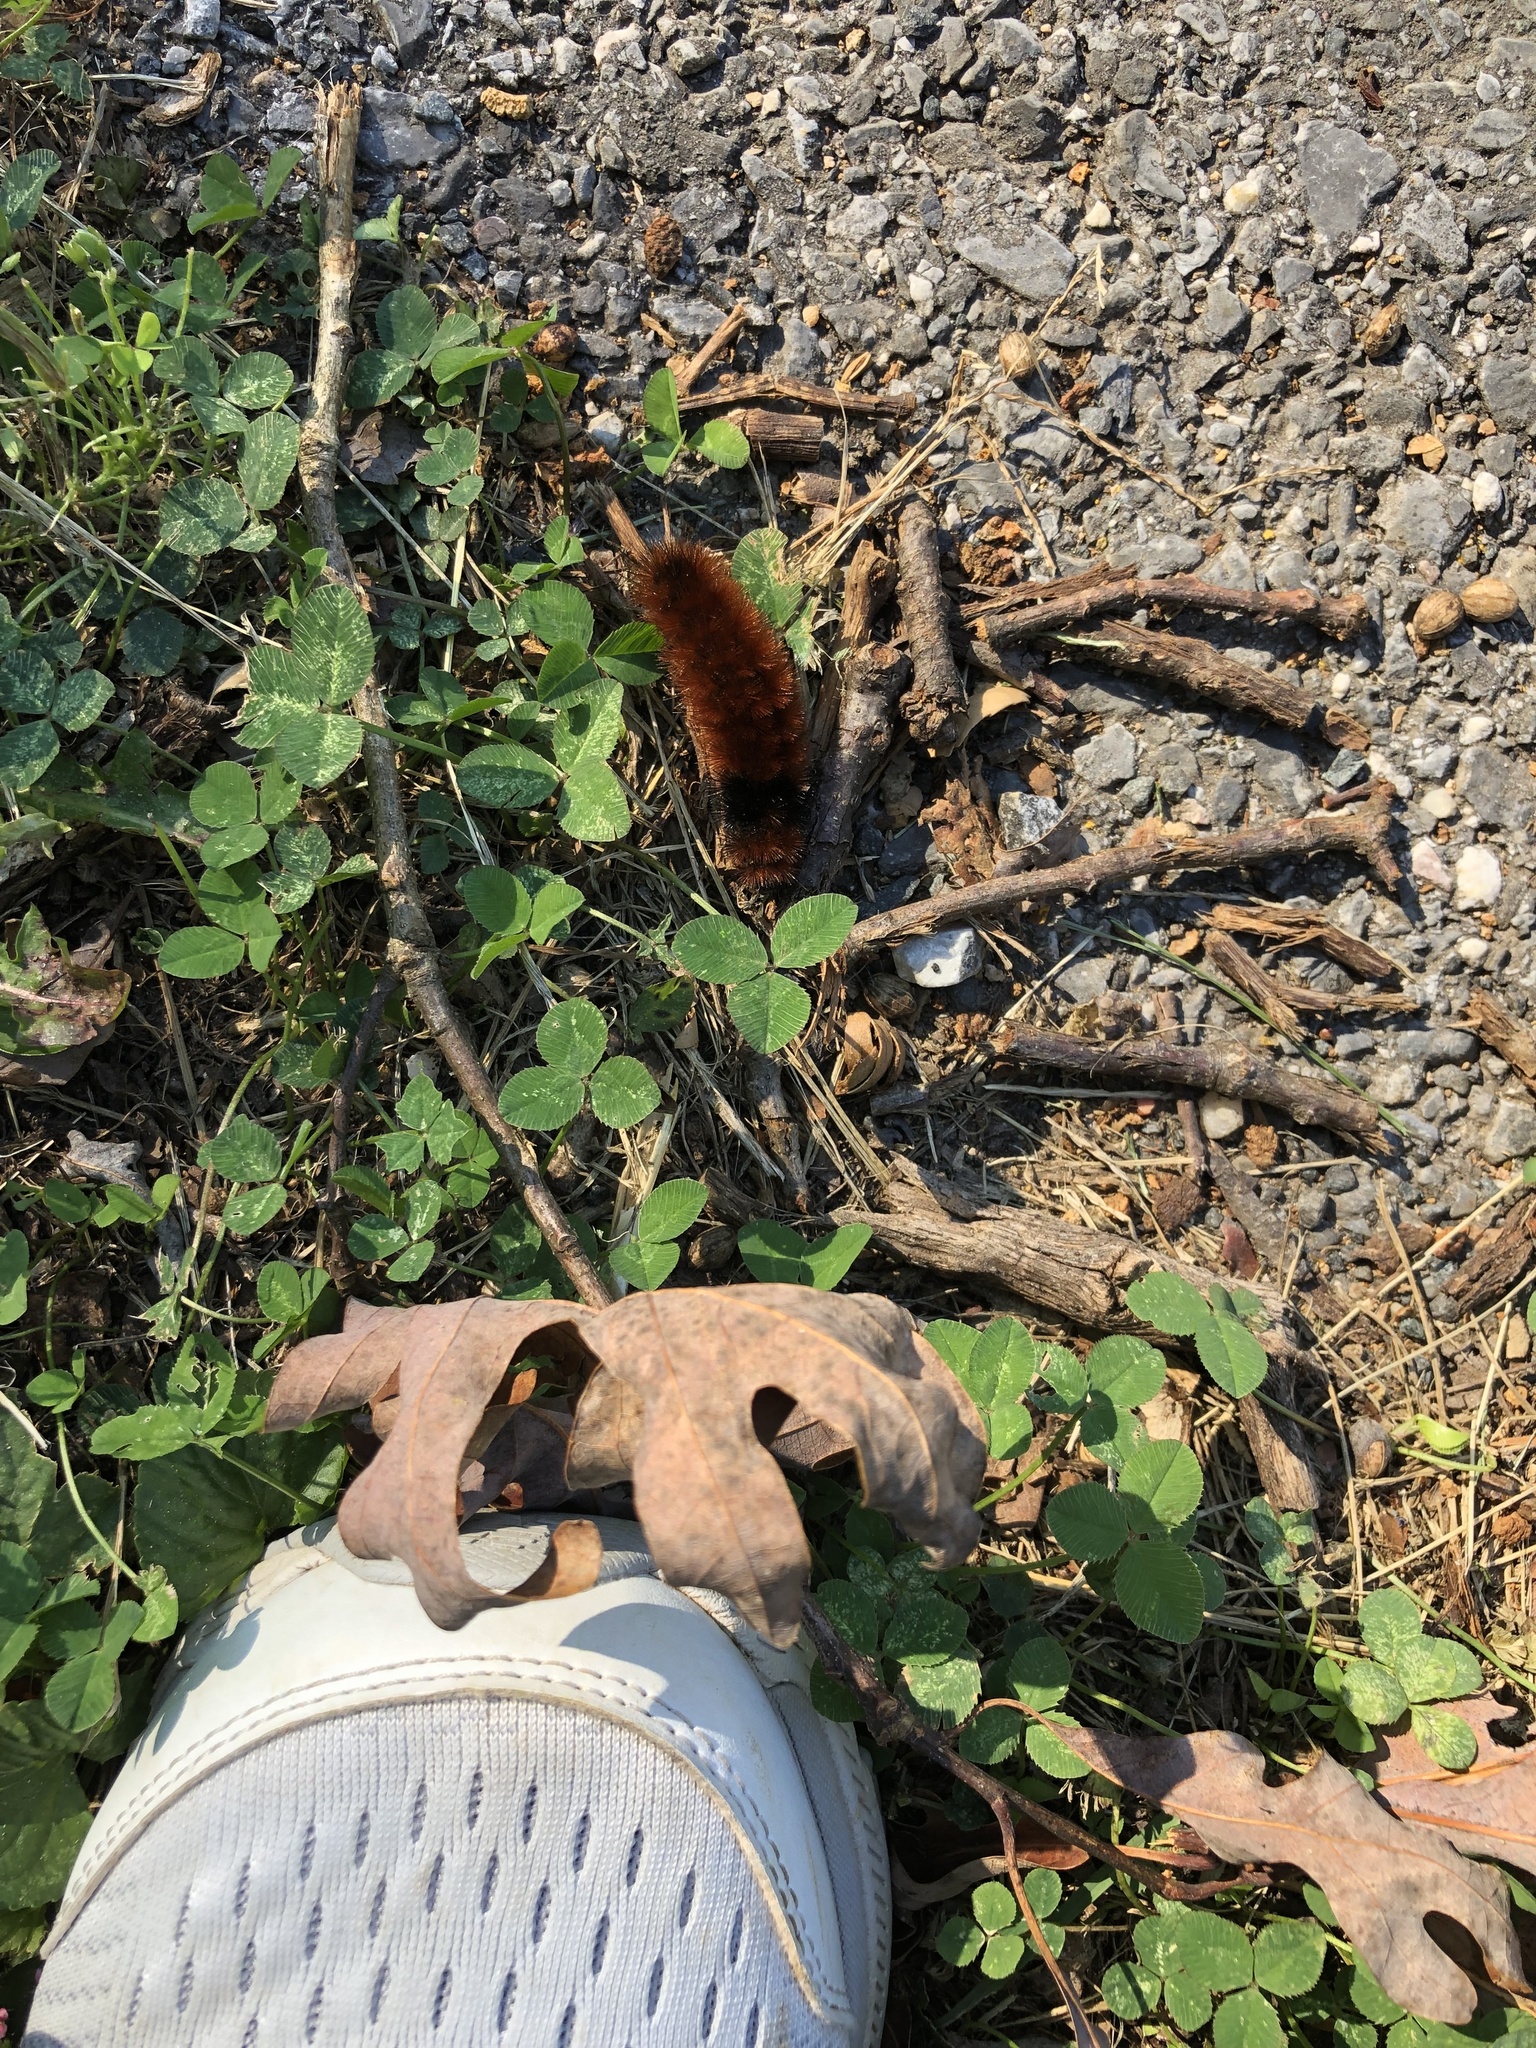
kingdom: Animalia
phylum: Arthropoda
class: Insecta
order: Lepidoptera
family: Erebidae
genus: Pyrrharctia
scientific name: Pyrrharctia isabella
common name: Isabella tiger moth
